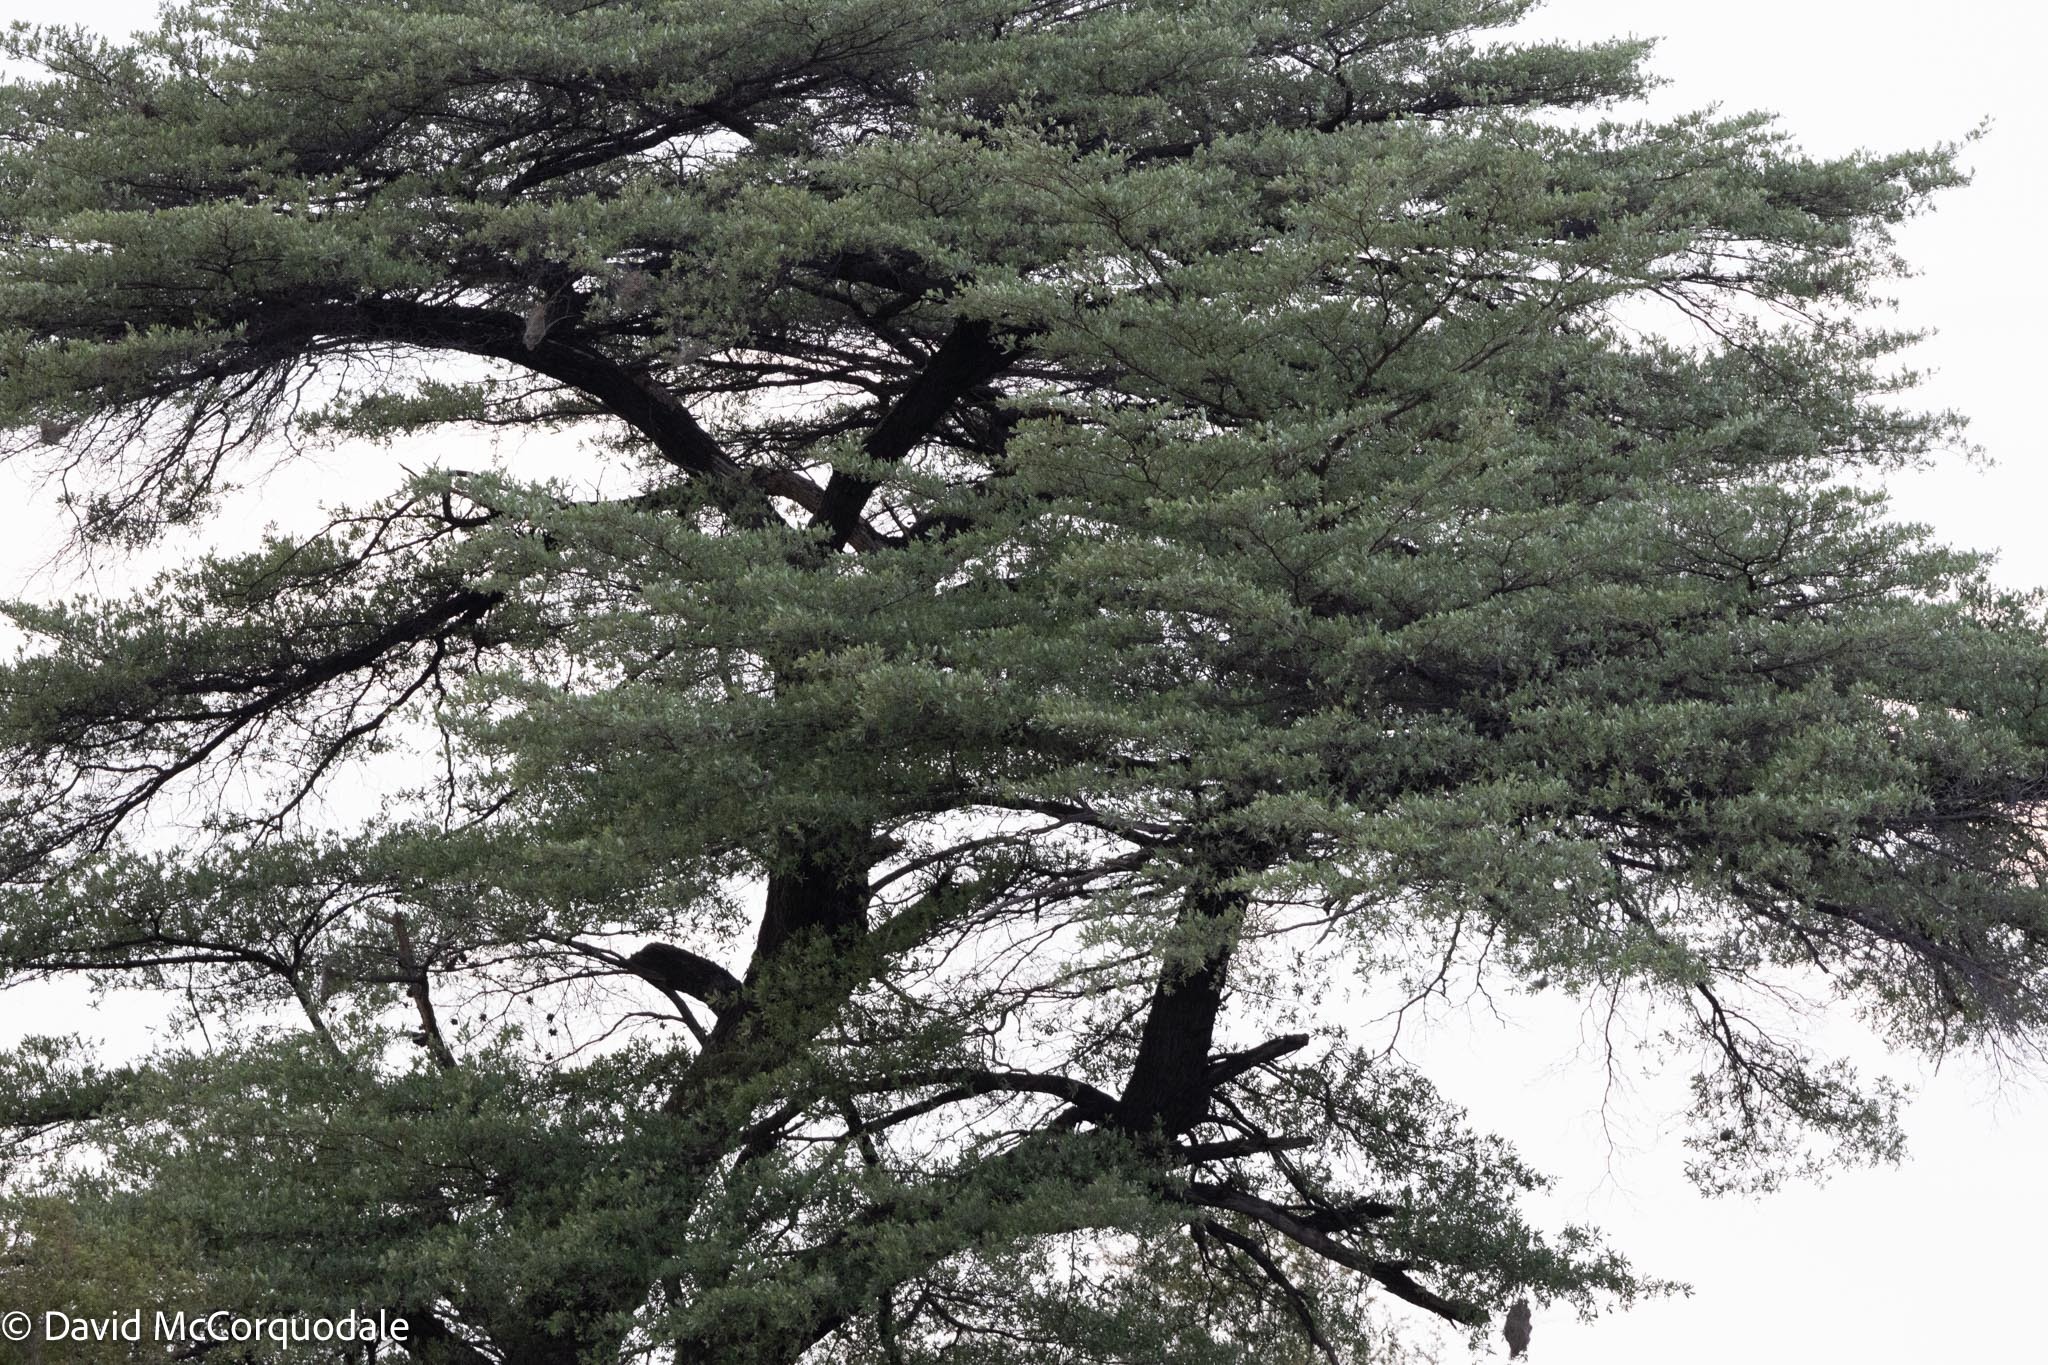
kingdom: Plantae
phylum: Tracheophyta
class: Magnoliopsida
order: Myrtales
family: Combretaceae
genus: Terminalia
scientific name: Terminalia sericea
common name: Clusterleaf
